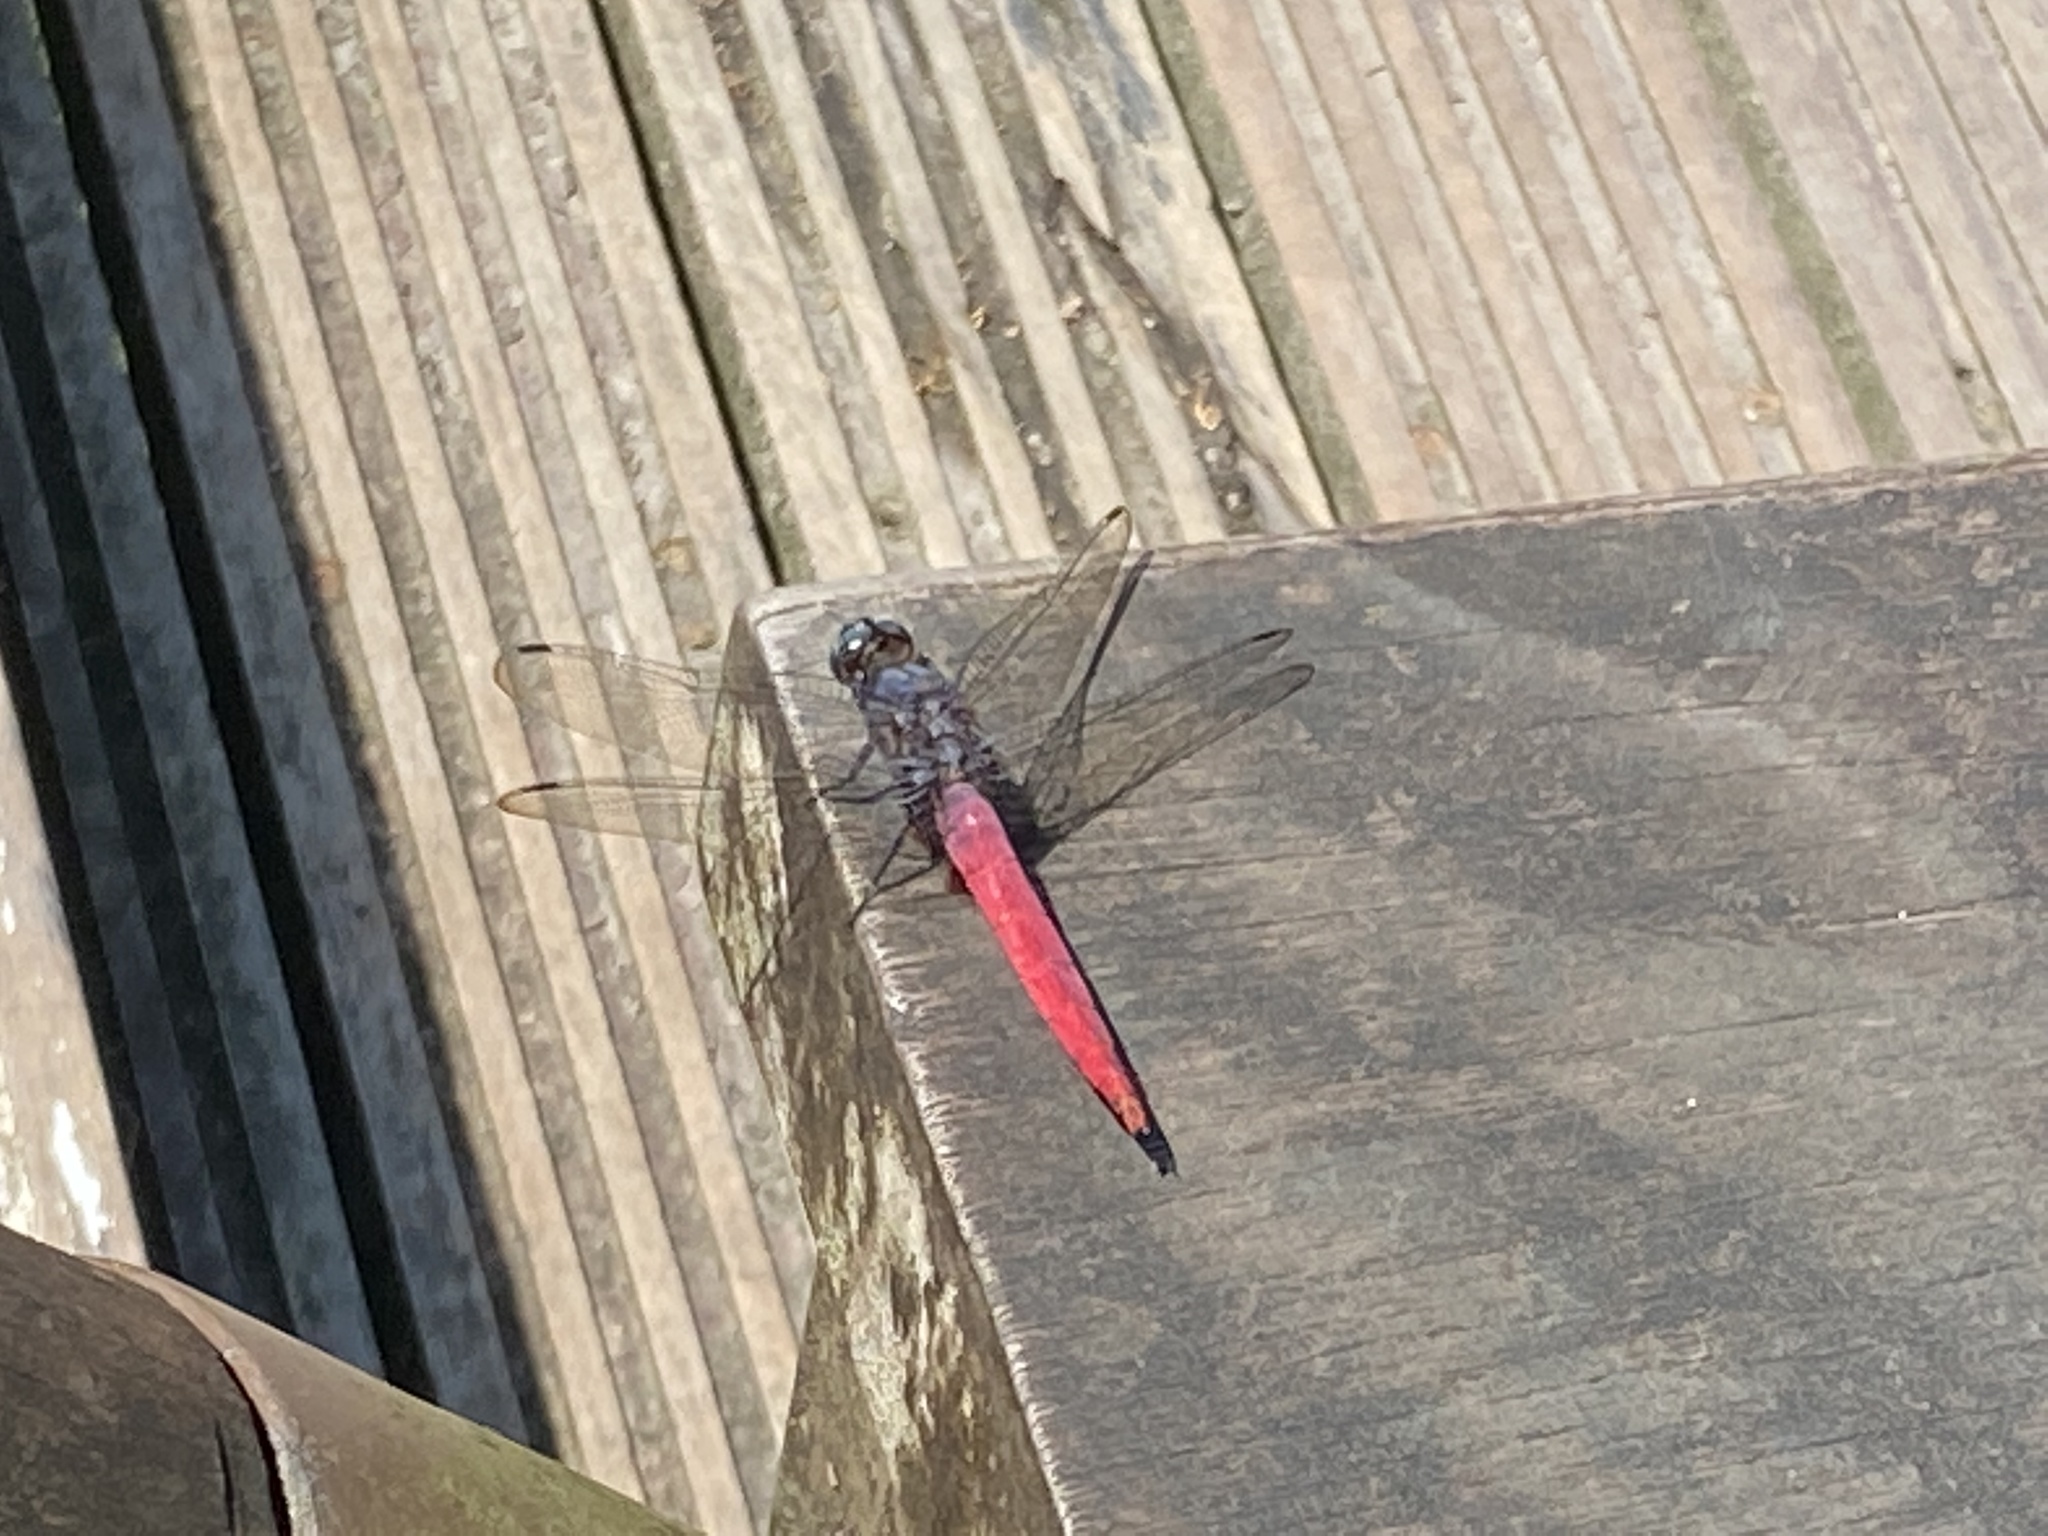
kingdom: Animalia
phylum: Arthropoda
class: Insecta
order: Odonata
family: Libellulidae
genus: Orthetrum
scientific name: Orthetrum pruinosum
